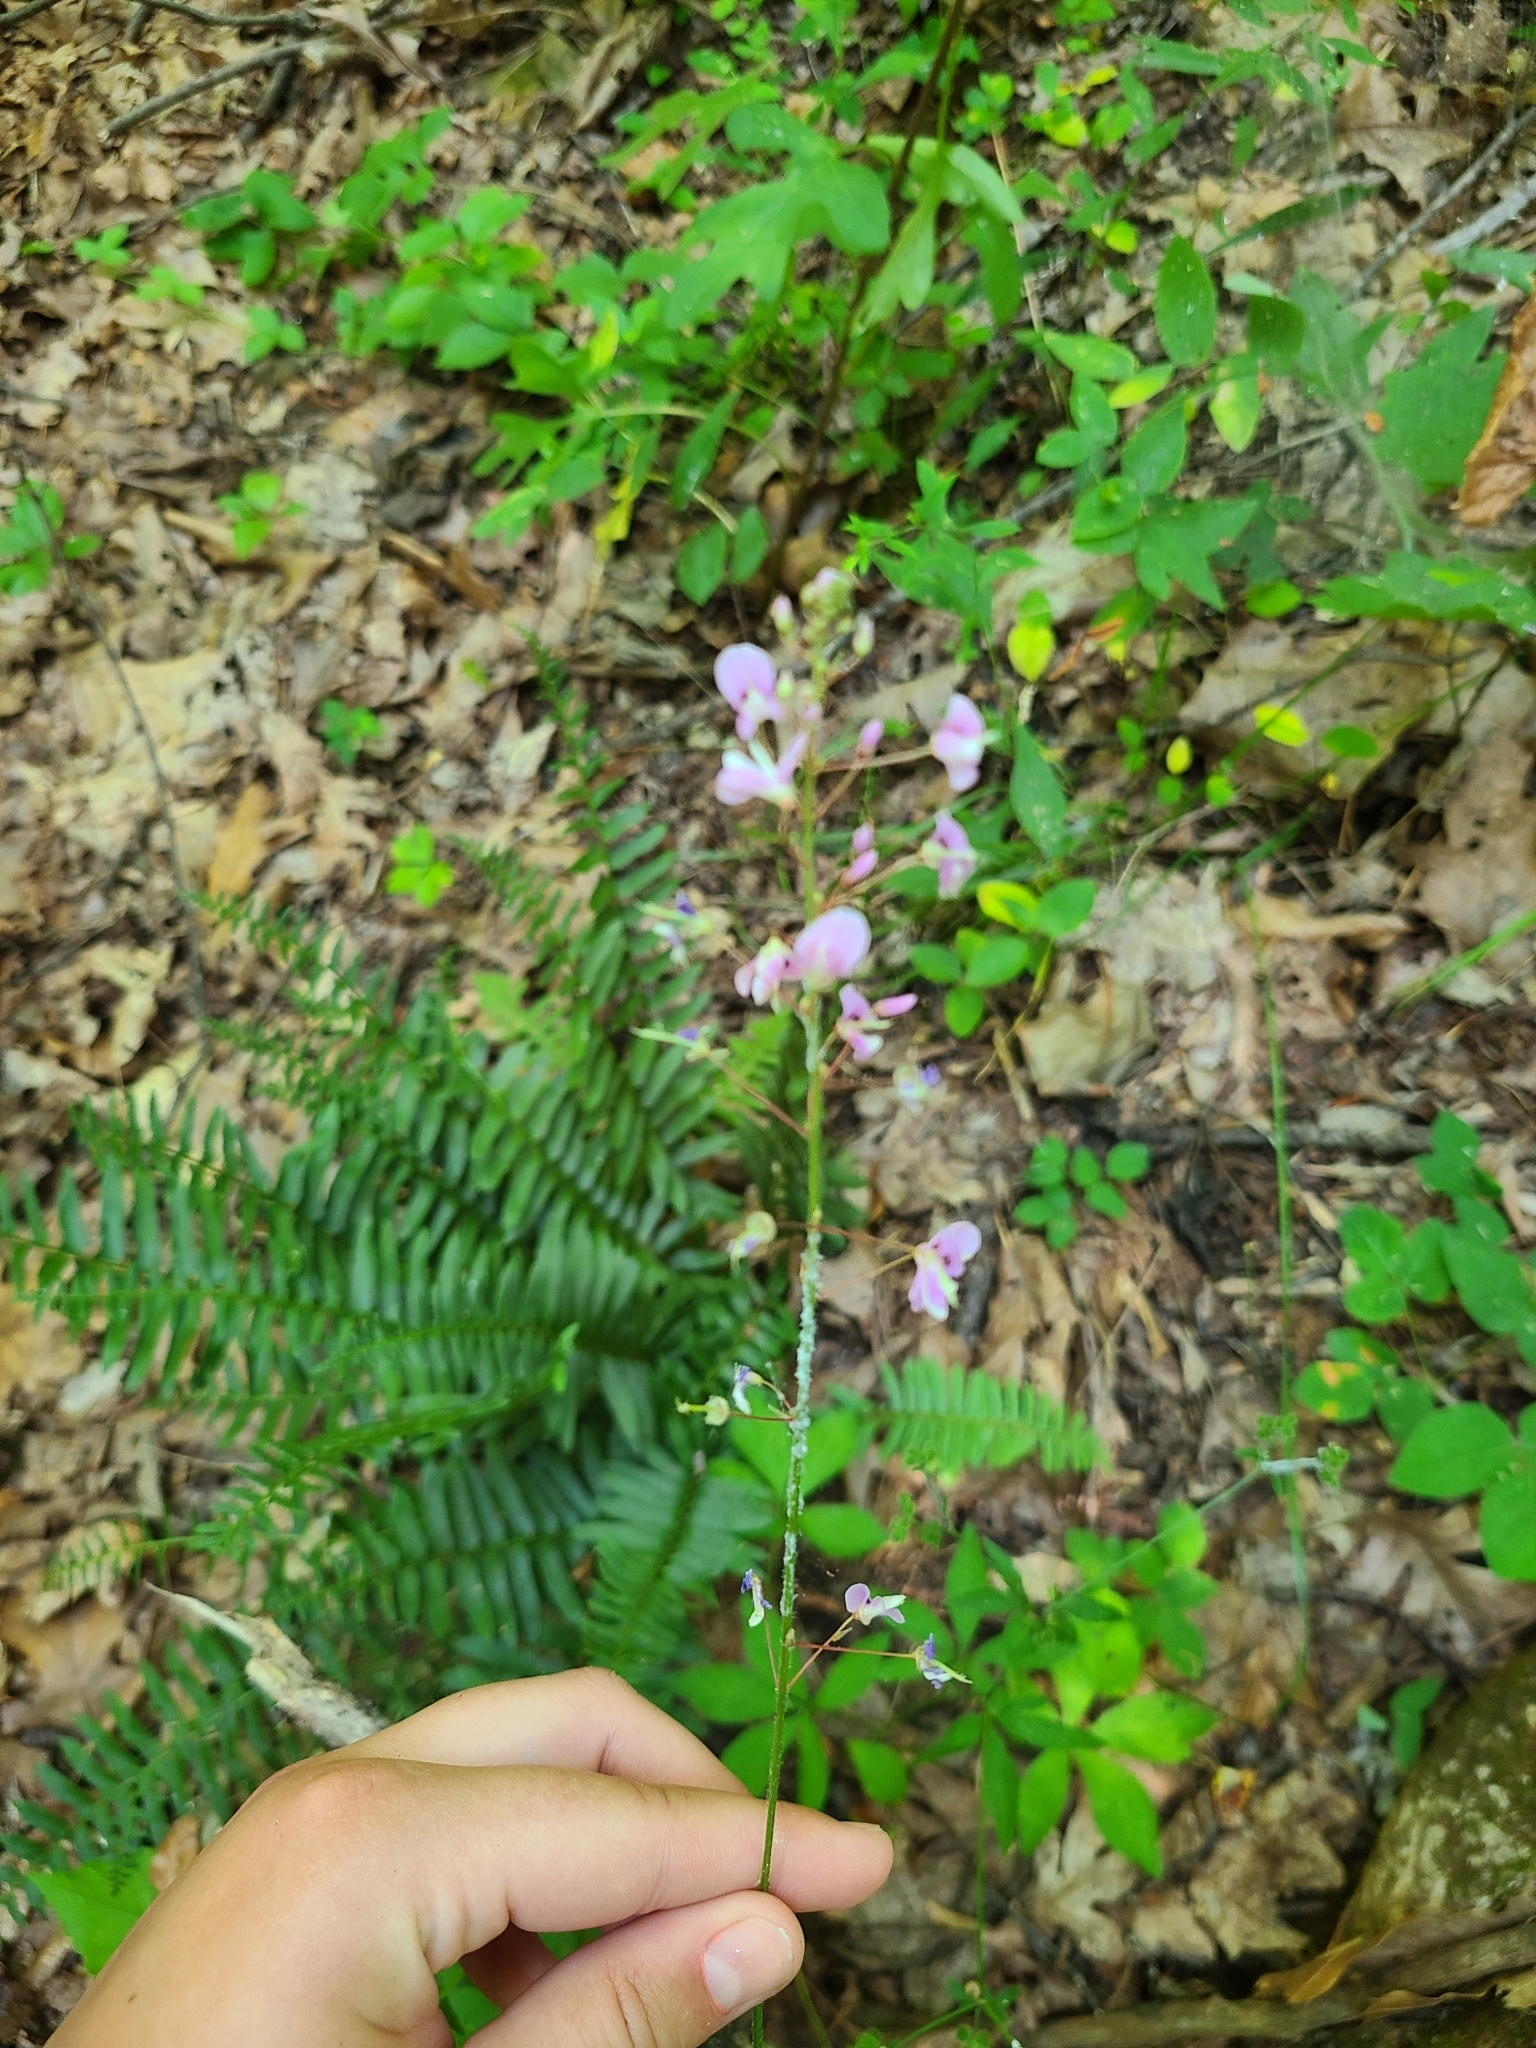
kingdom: Plantae
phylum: Tracheophyta
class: Magnoliopsida
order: Fabales
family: Fabaceae
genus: Hylodesmum
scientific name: Hylodesmum nudiflorum
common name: Bare-stemmed tick-trefoil
